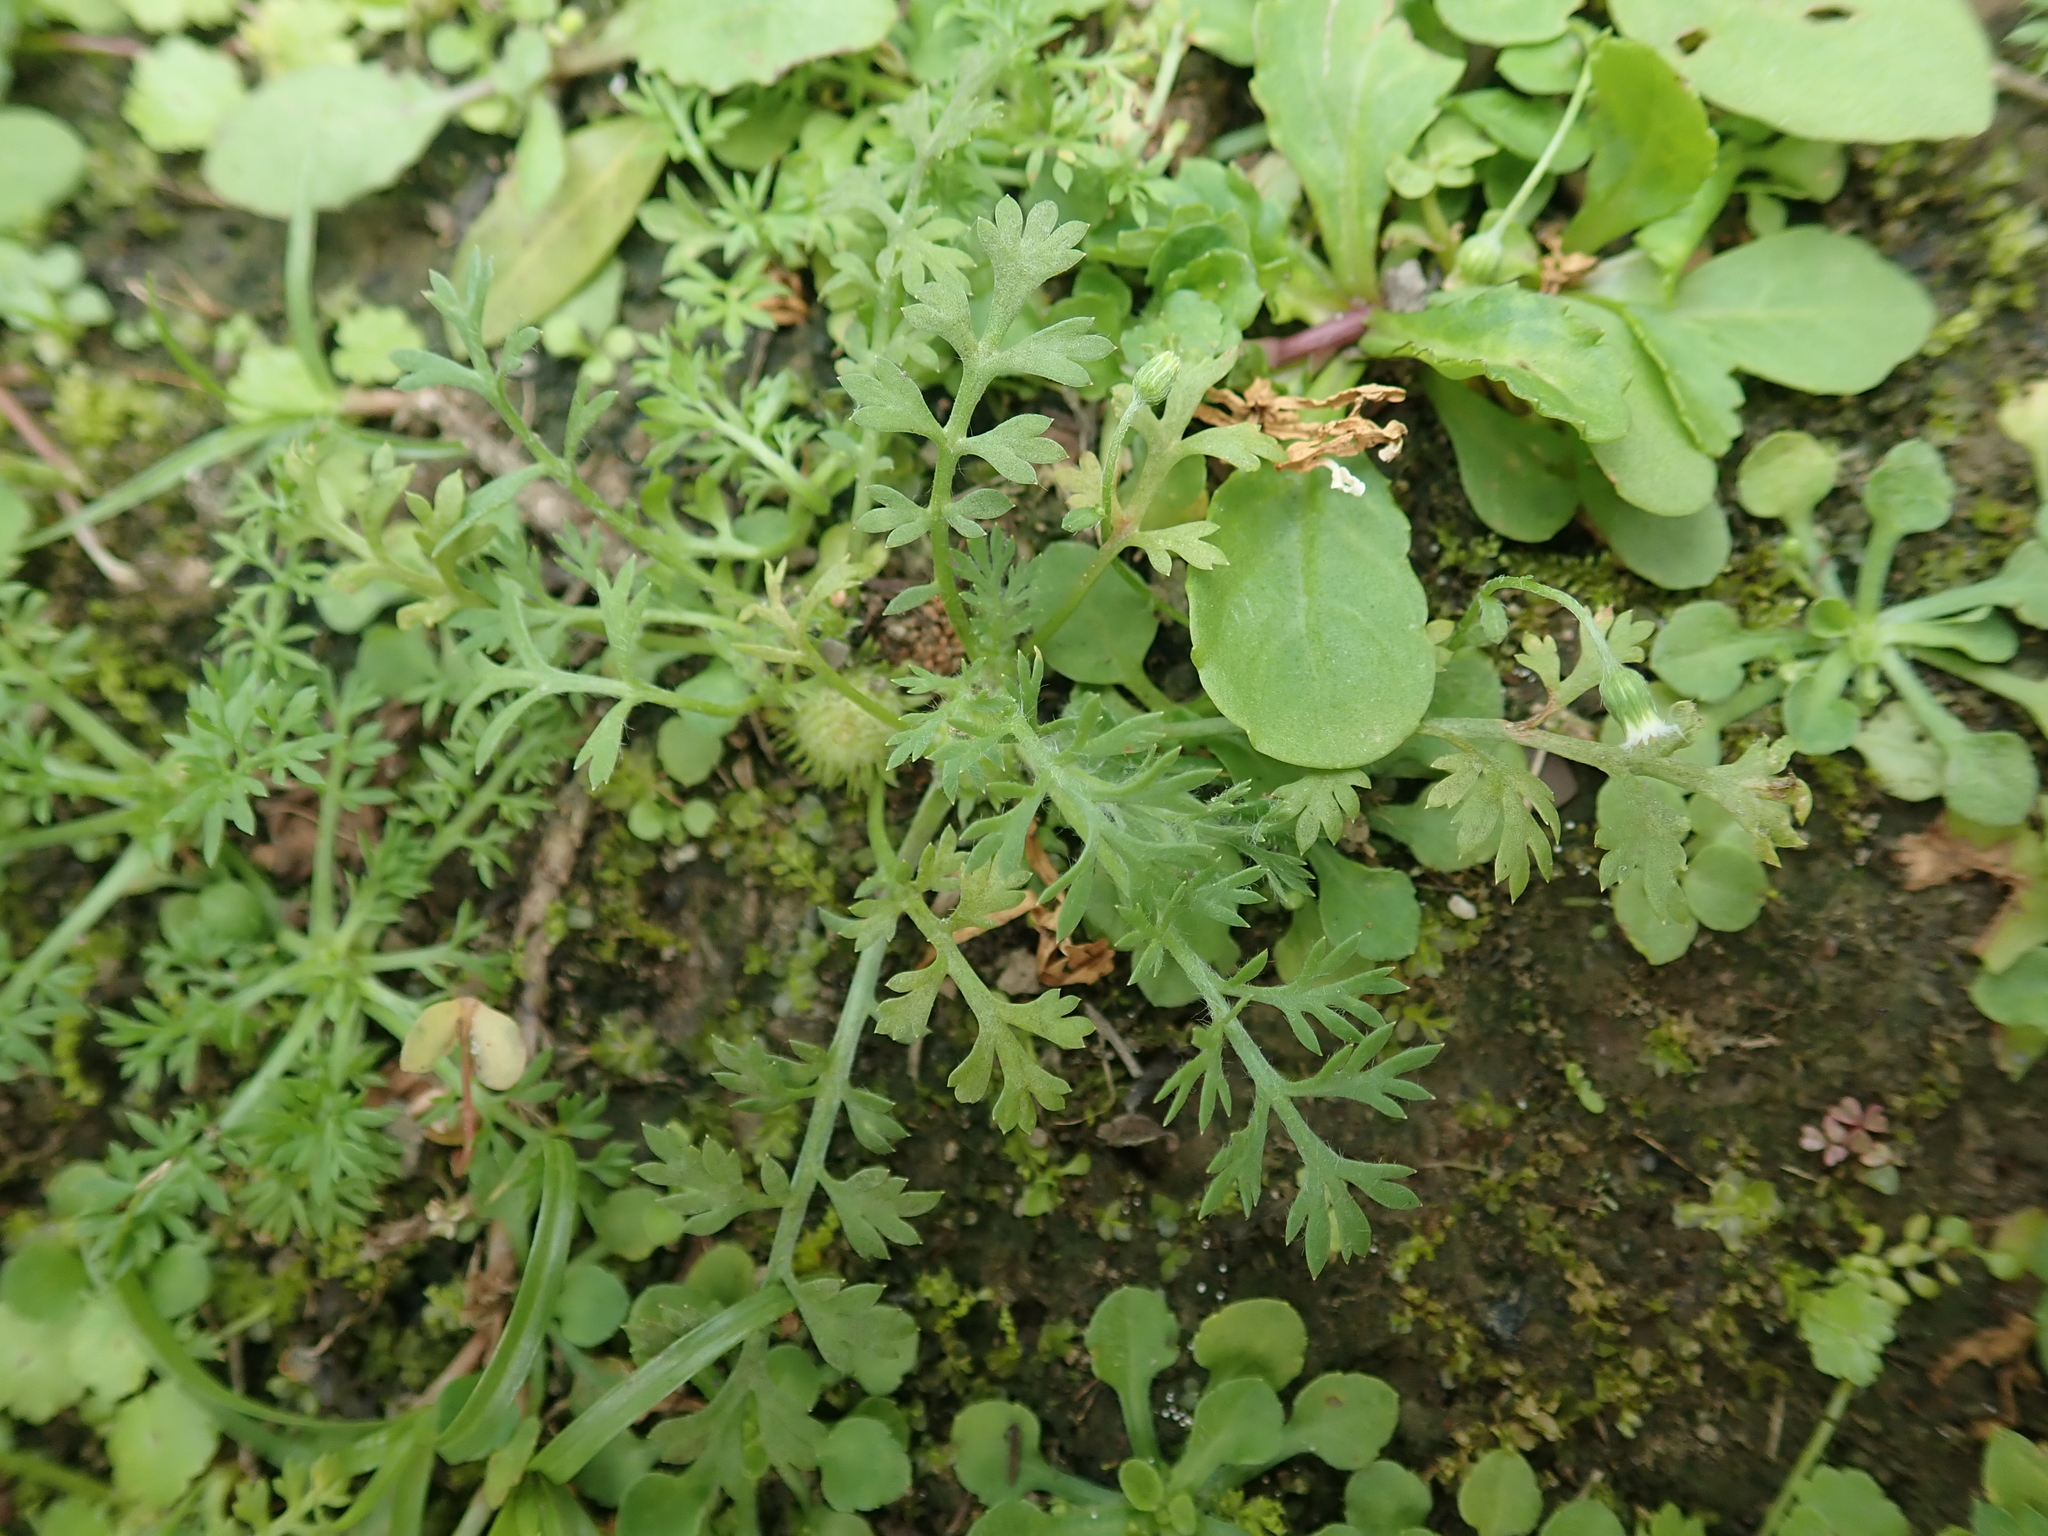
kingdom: Plantae
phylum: Tracheophyta
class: Magnoliopsida
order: Asterales
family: Asteraceae
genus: Soliva
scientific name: Soliva anthemifolia
